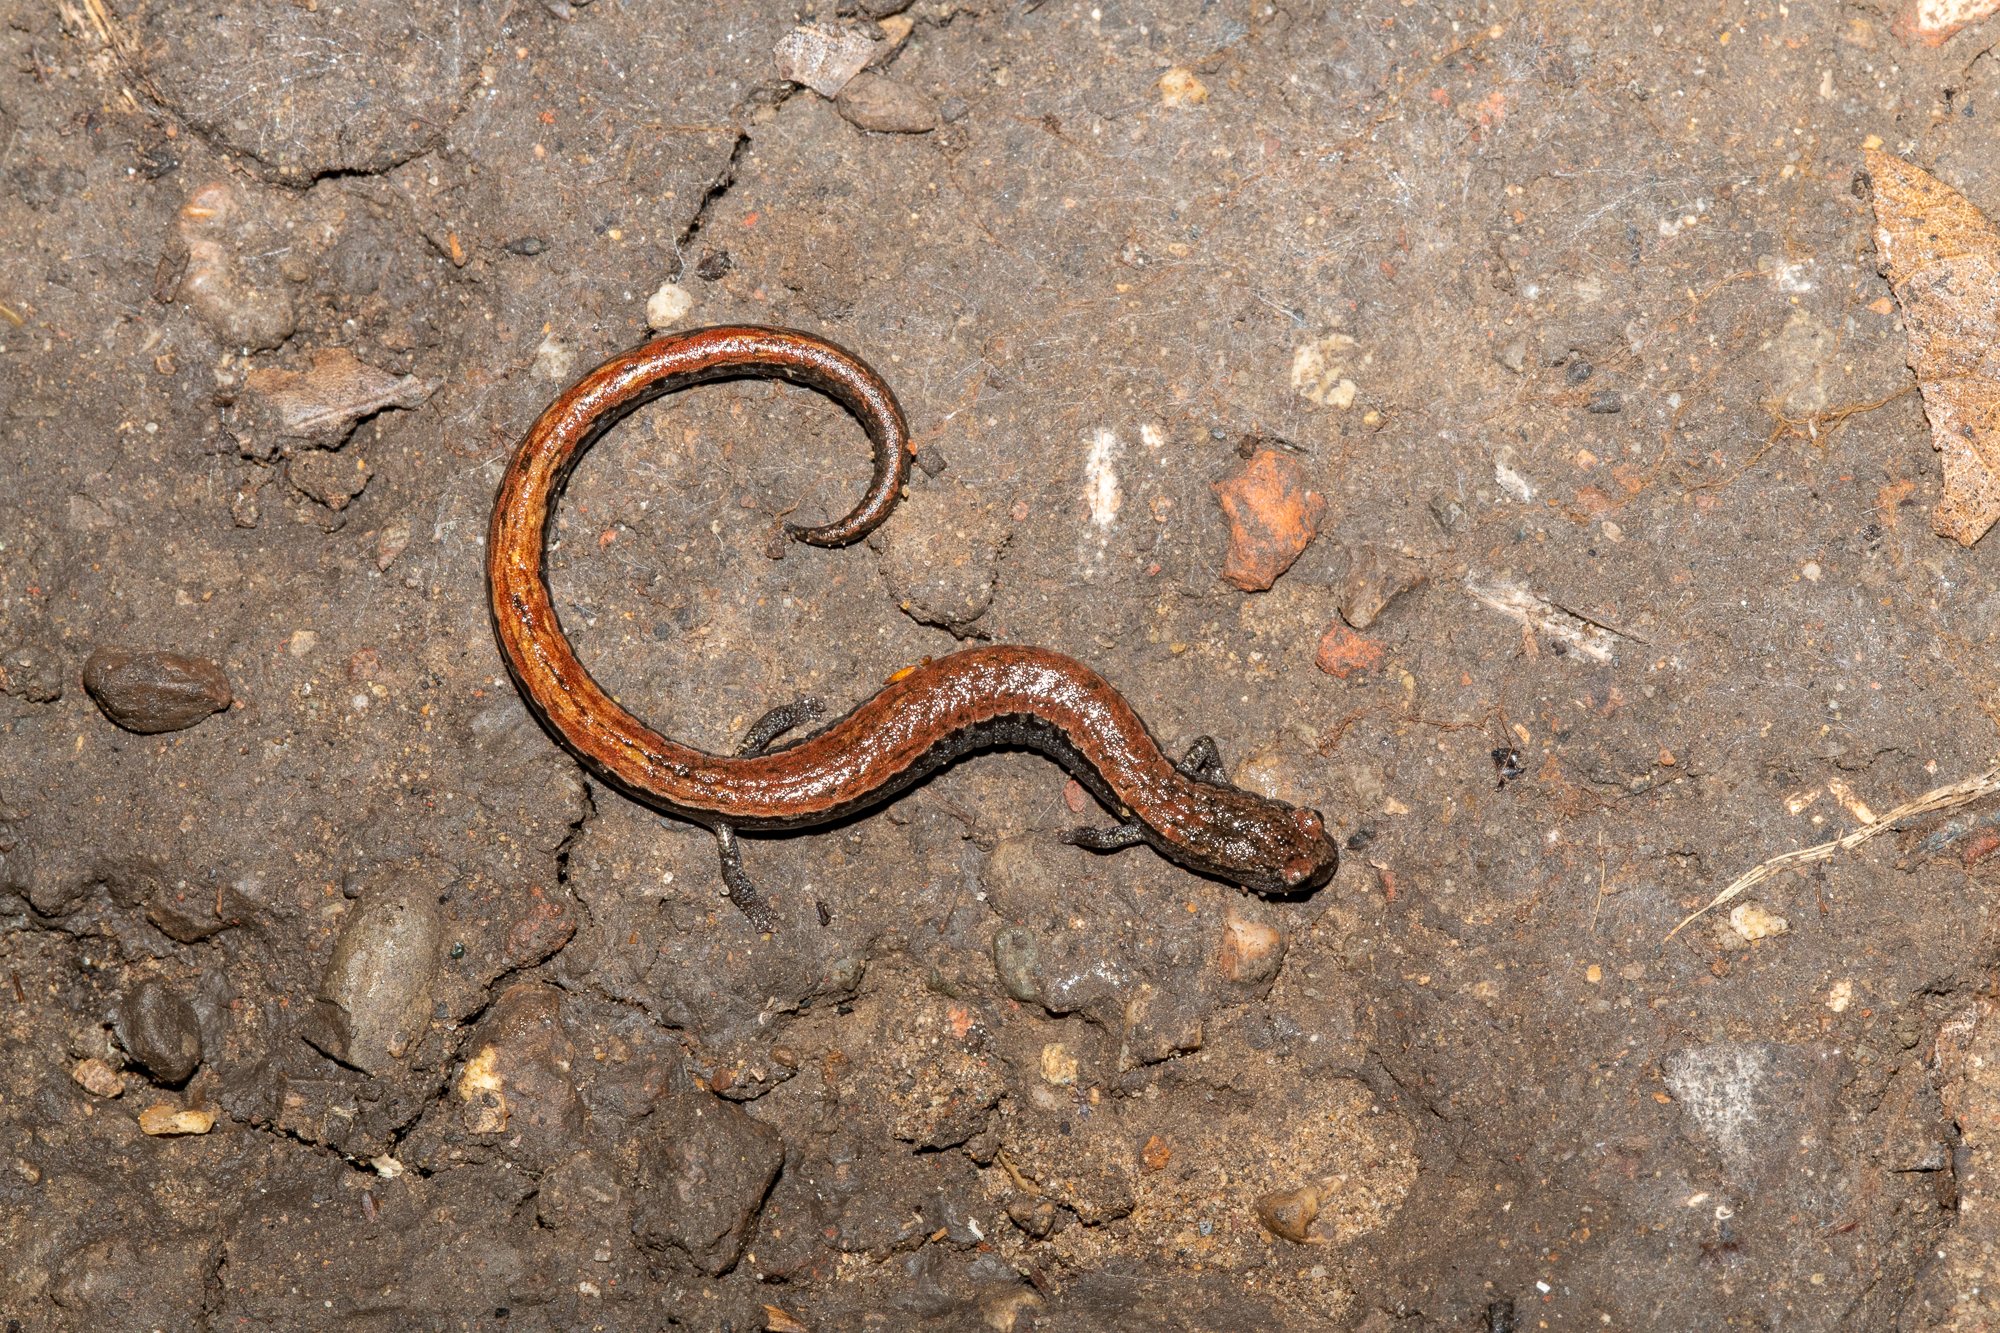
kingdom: Animalia
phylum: Chordata
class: Amphibia
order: Caudata
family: Plethodontidae
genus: Batrachoseps
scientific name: Batrachoseps attenuatus
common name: California slender salamander
